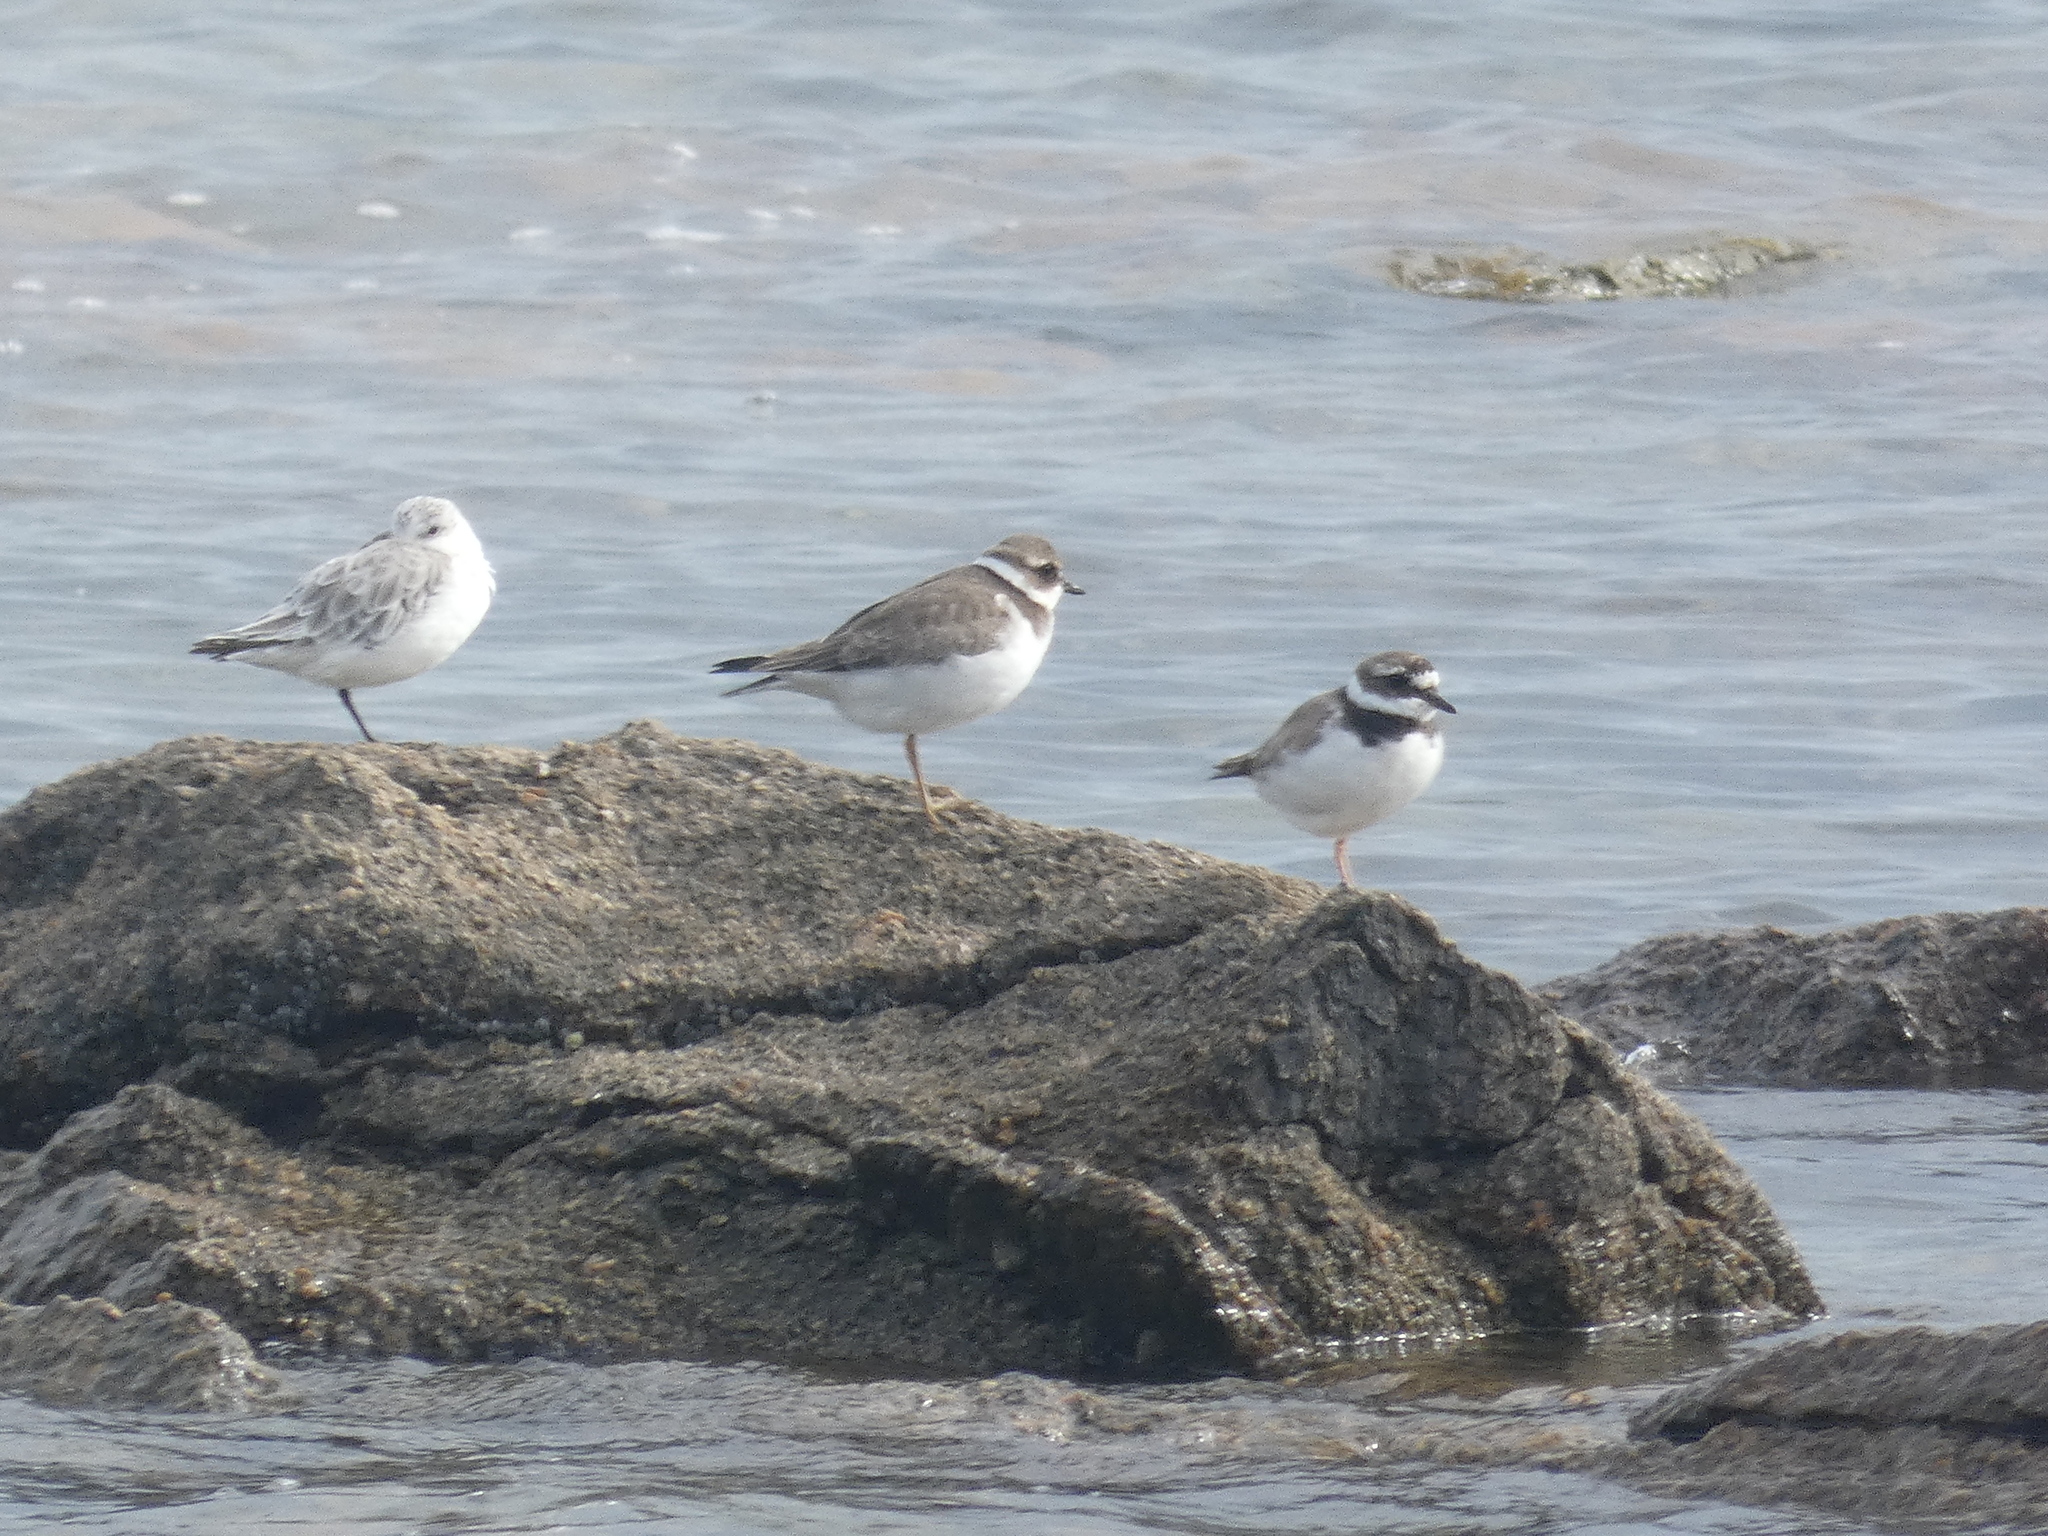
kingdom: Animalia
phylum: Chordata
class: Aves
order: Charadriiformes
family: Charadriidae
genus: Charadrius
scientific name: Charadrius hiaticula
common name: Common ringed plover
